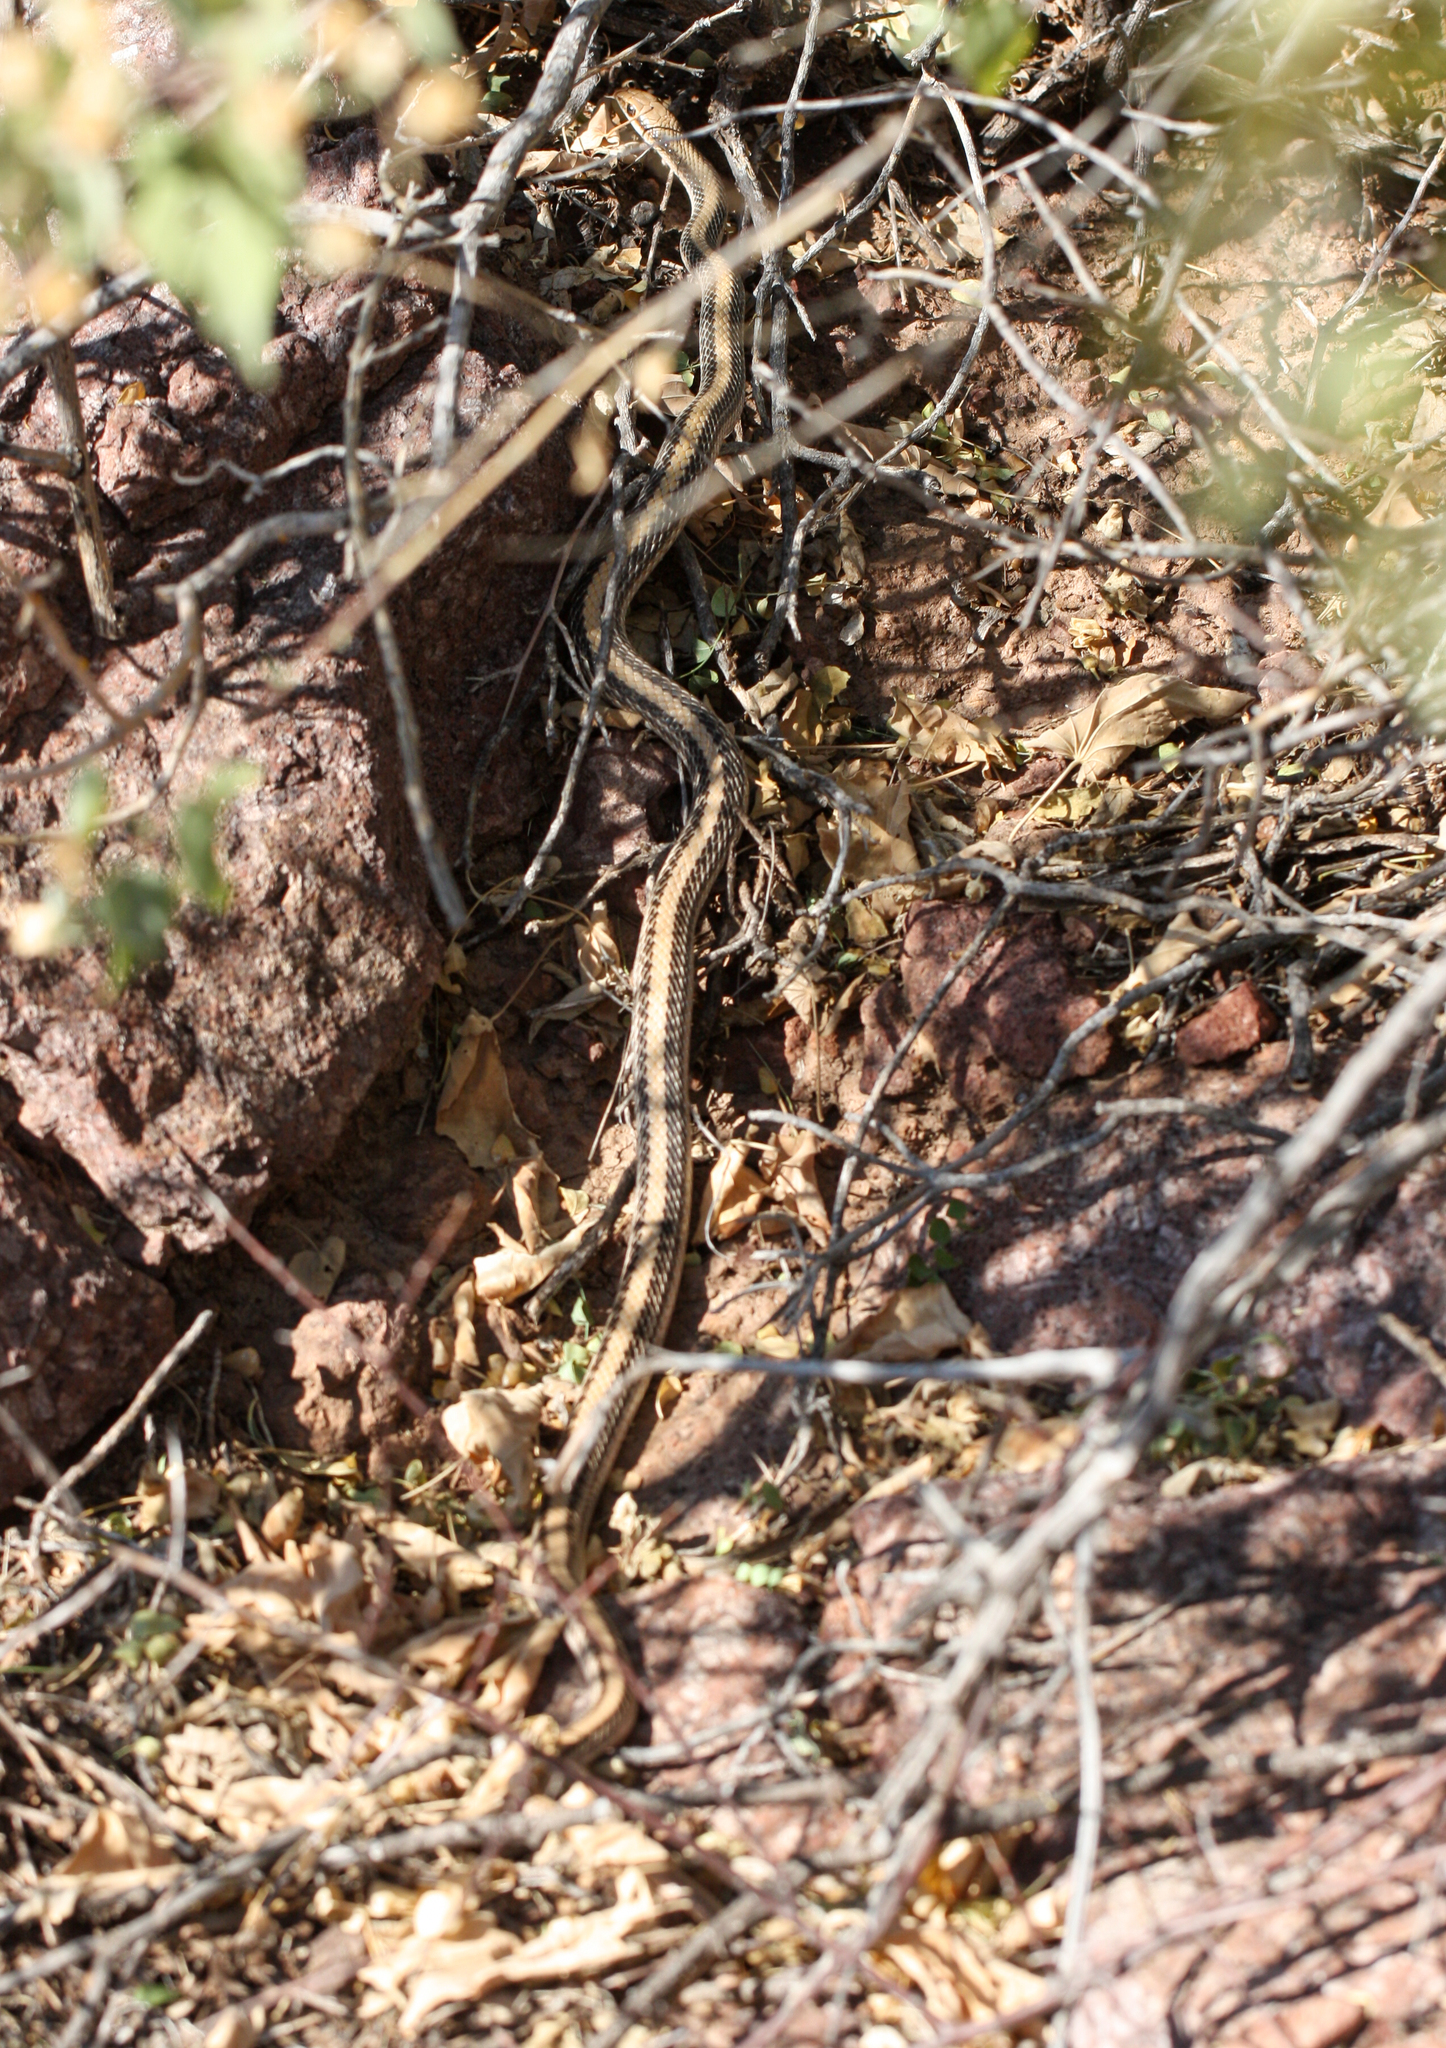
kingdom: Animalia
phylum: Chordata
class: Squamata
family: Colubridae
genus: Salvadora
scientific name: Salvadora hexalepis
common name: Western patchnose snake
